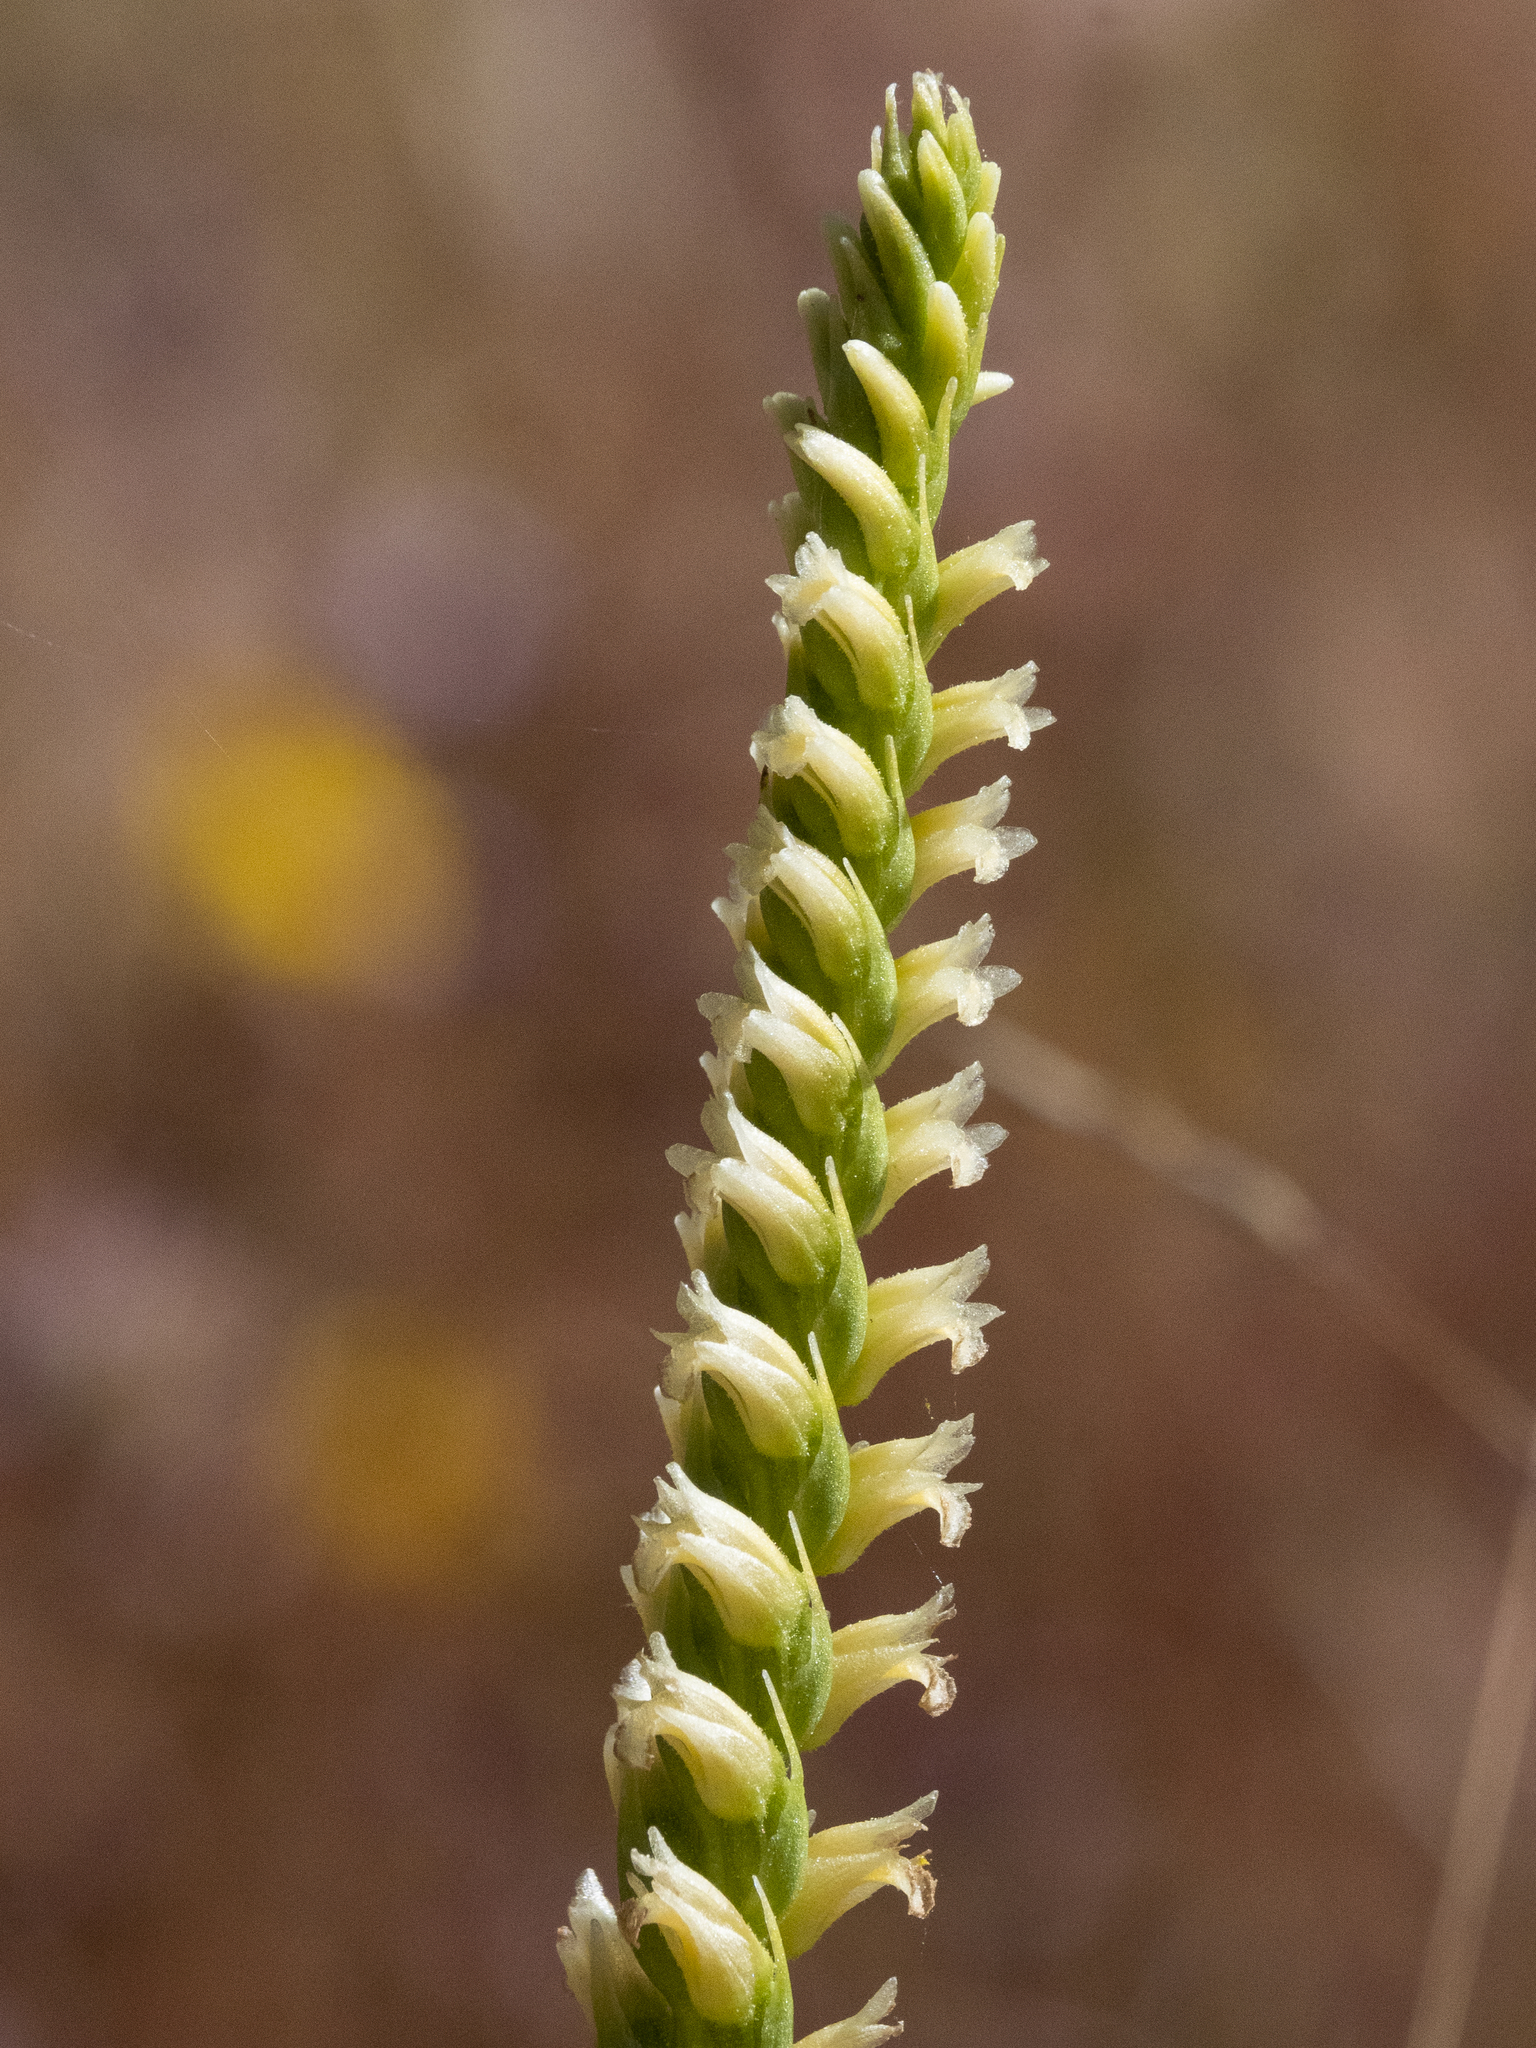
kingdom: Plantae
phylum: Tracheophyta
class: Liliopsida
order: Asparagales
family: Orchidaceae
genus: Spiranthes
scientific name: Spiranthes porrifolia
